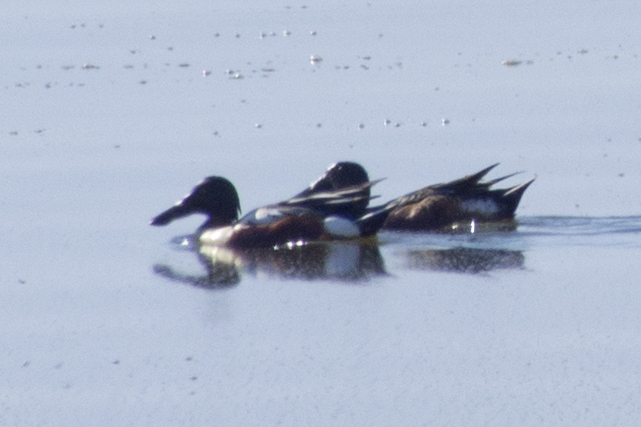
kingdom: Animalia
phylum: Chordata
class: Aves
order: Anseriformes
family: Anatidae
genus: Spatula
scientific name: Spatula clypeata
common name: Northern shoveler
